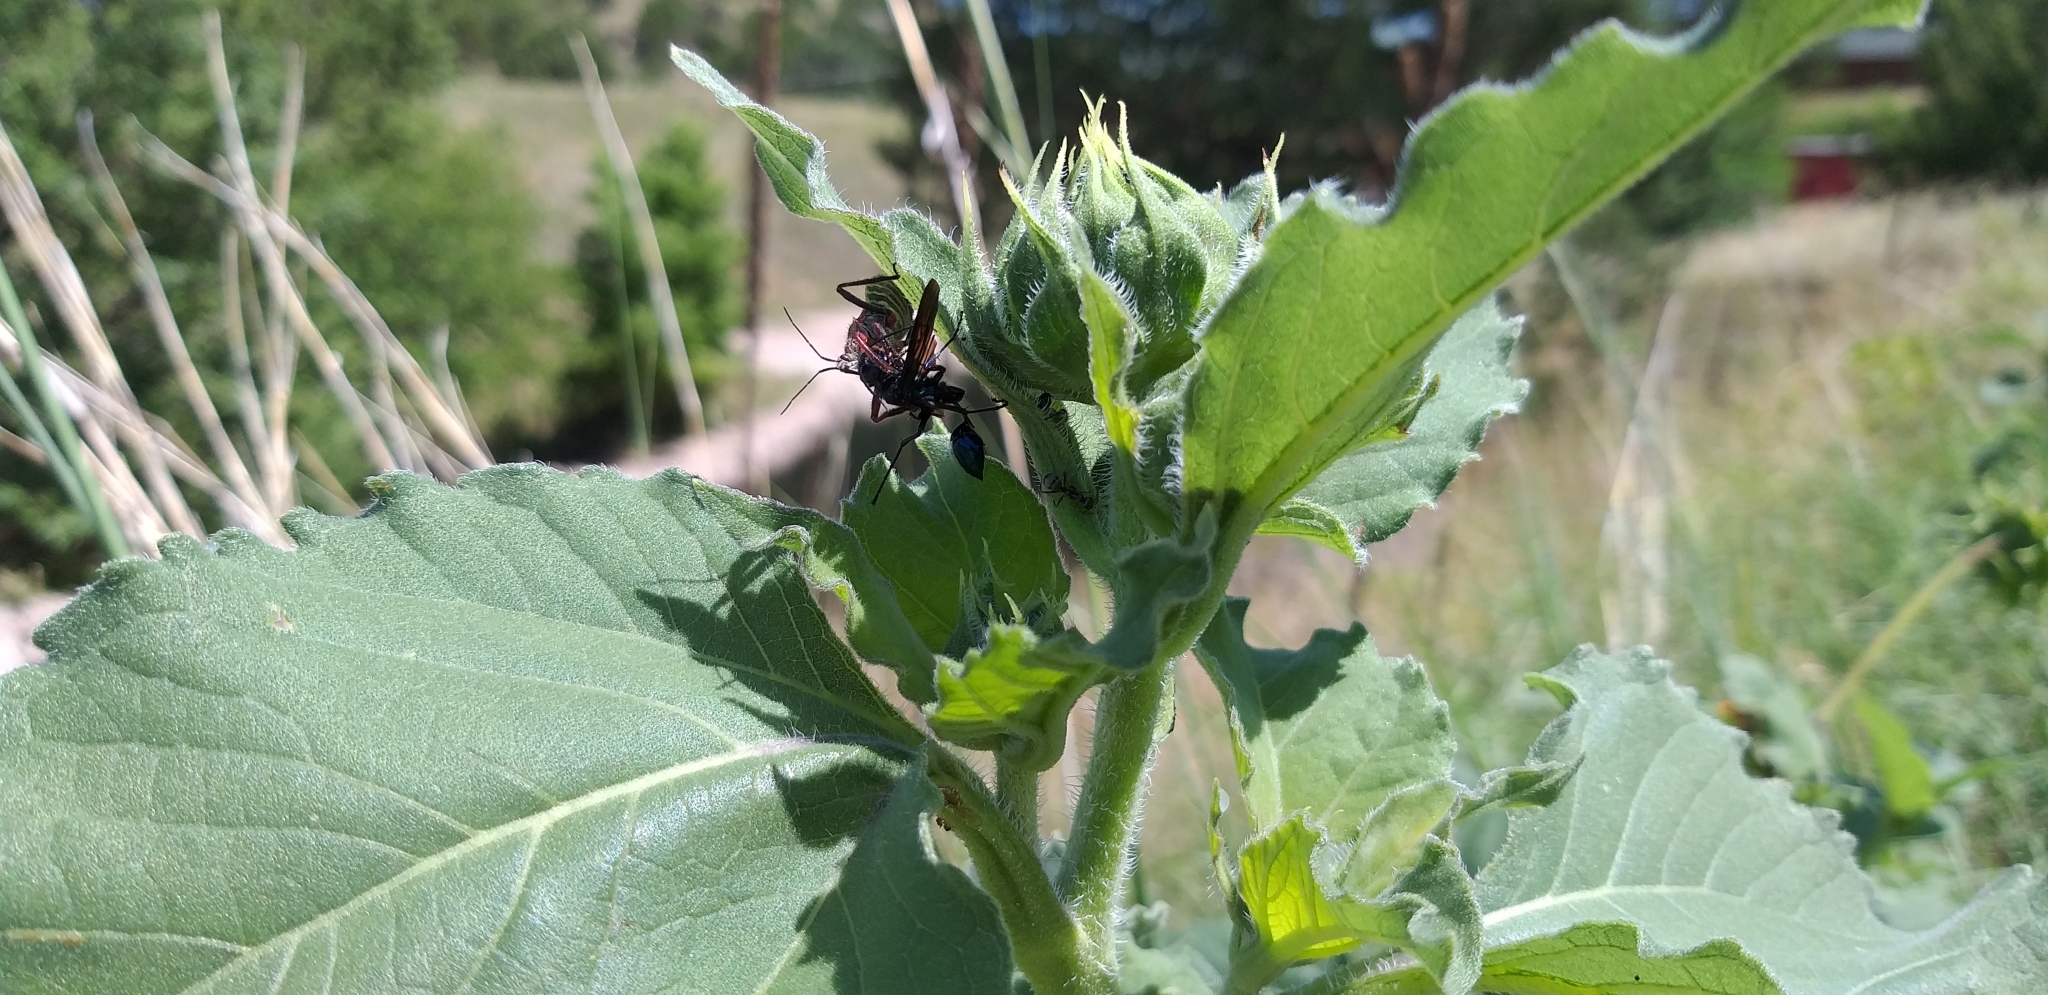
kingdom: Animalia
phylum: Arthropoda
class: Insecta
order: Hemiptera
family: Reduviidae
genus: Apiomerus
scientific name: Apiomerus spissipes
